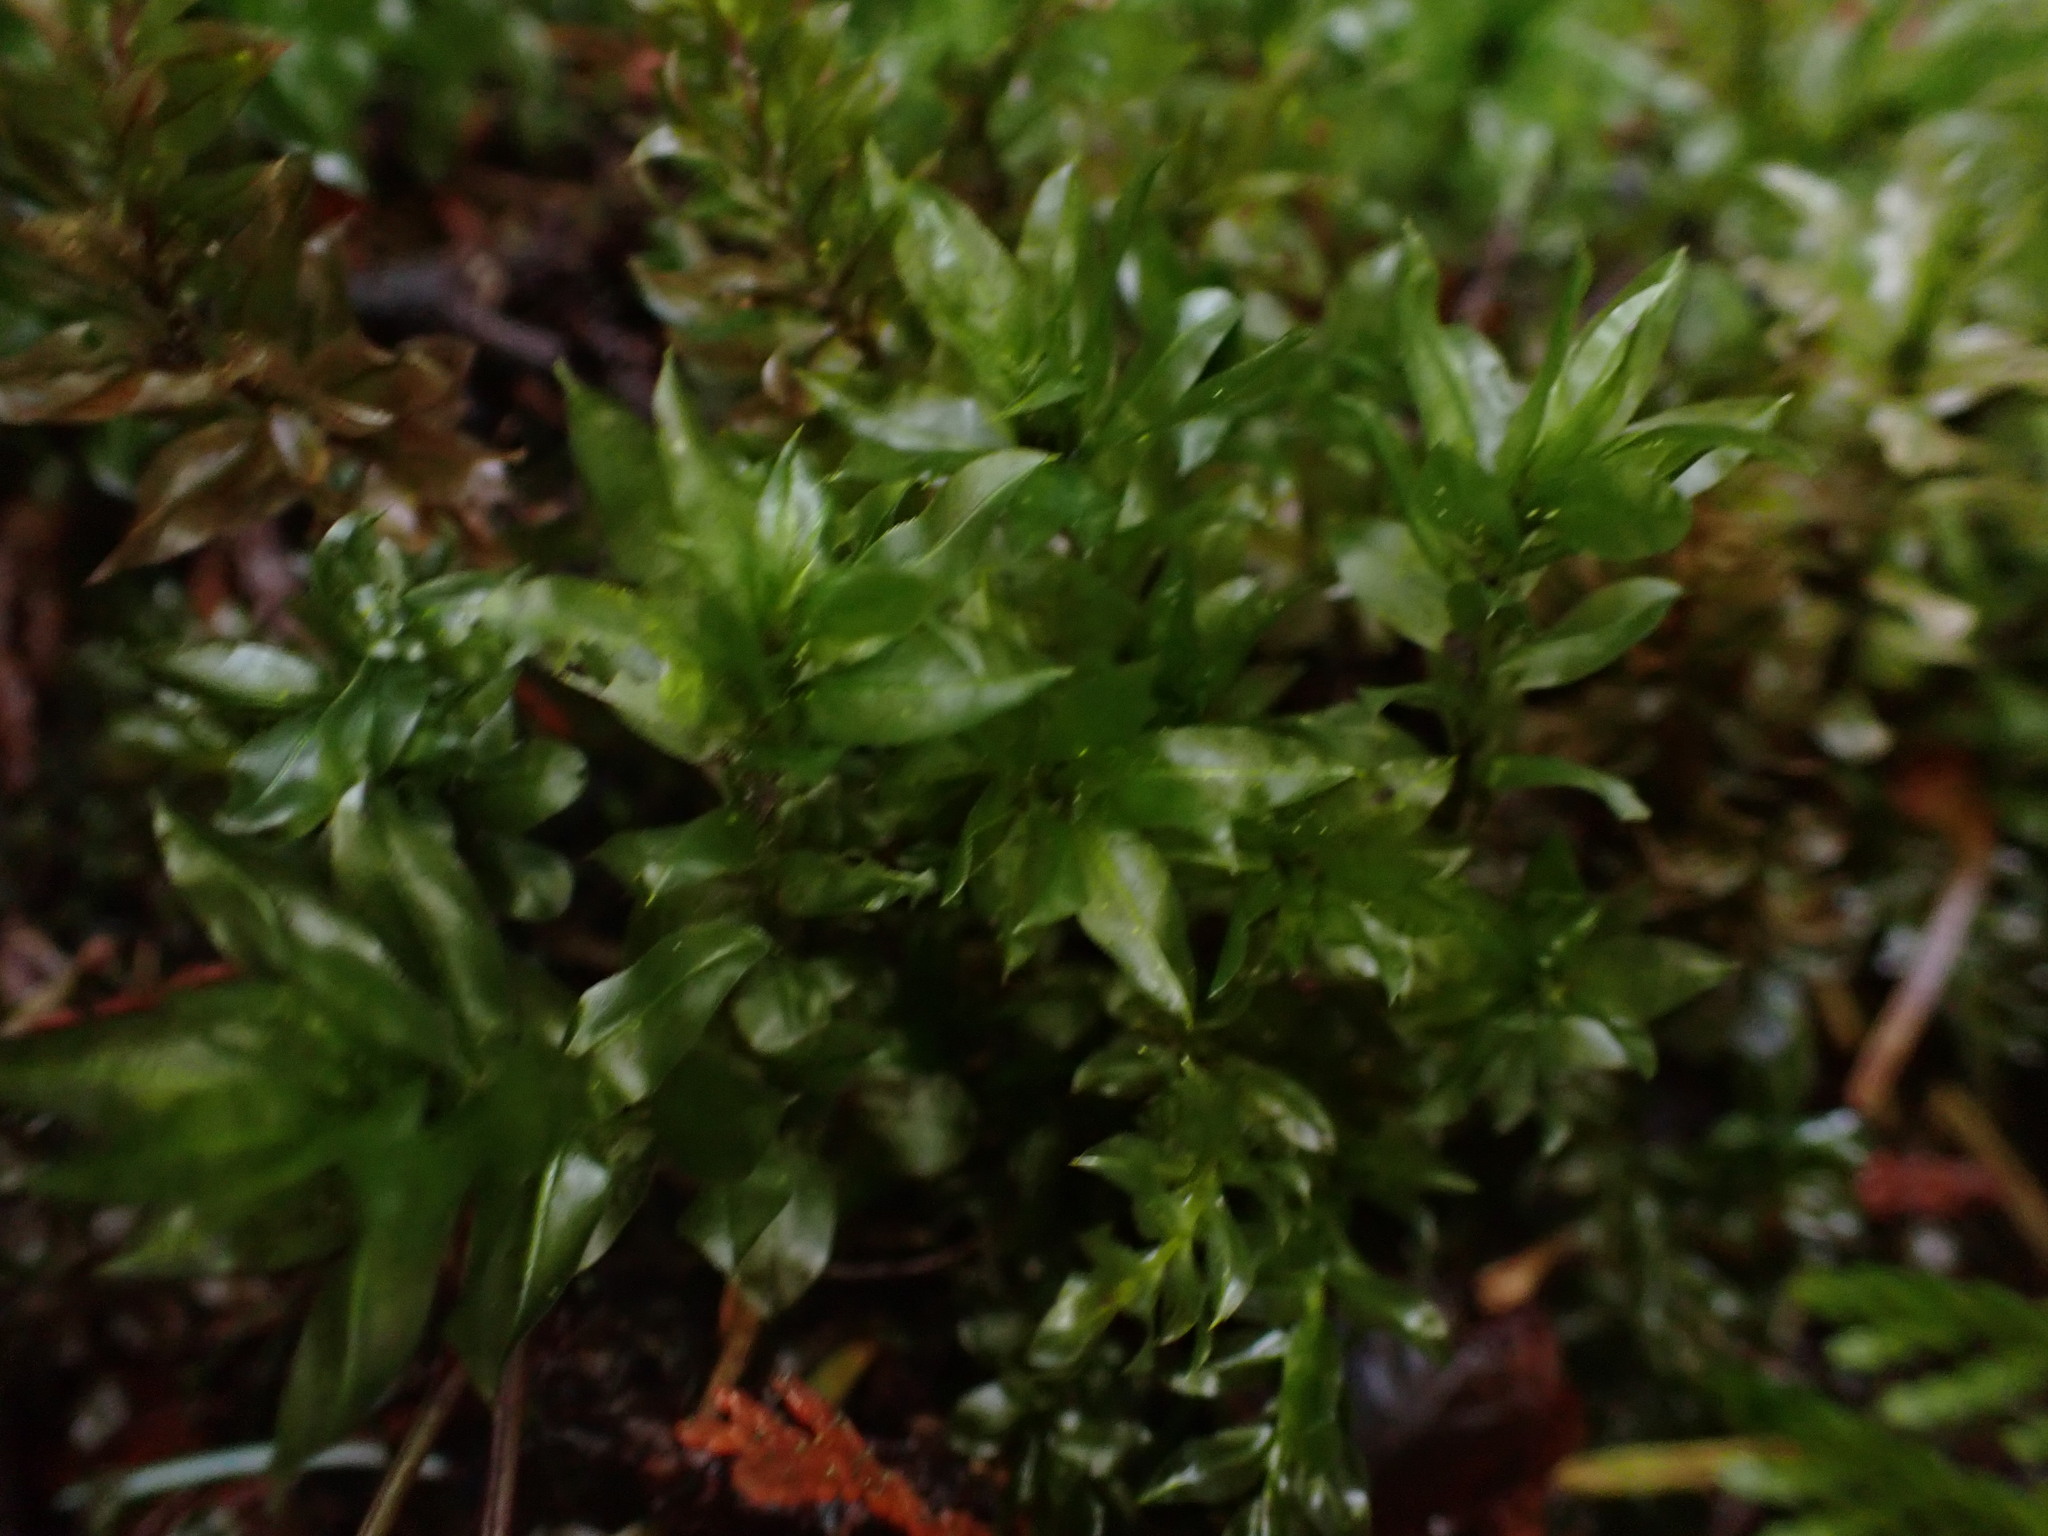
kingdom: Plantae
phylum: Bryophyta
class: Bryopsida
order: Bryales
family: Mniaceae
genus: Plagiomnium
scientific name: Plagiomnium insigne
